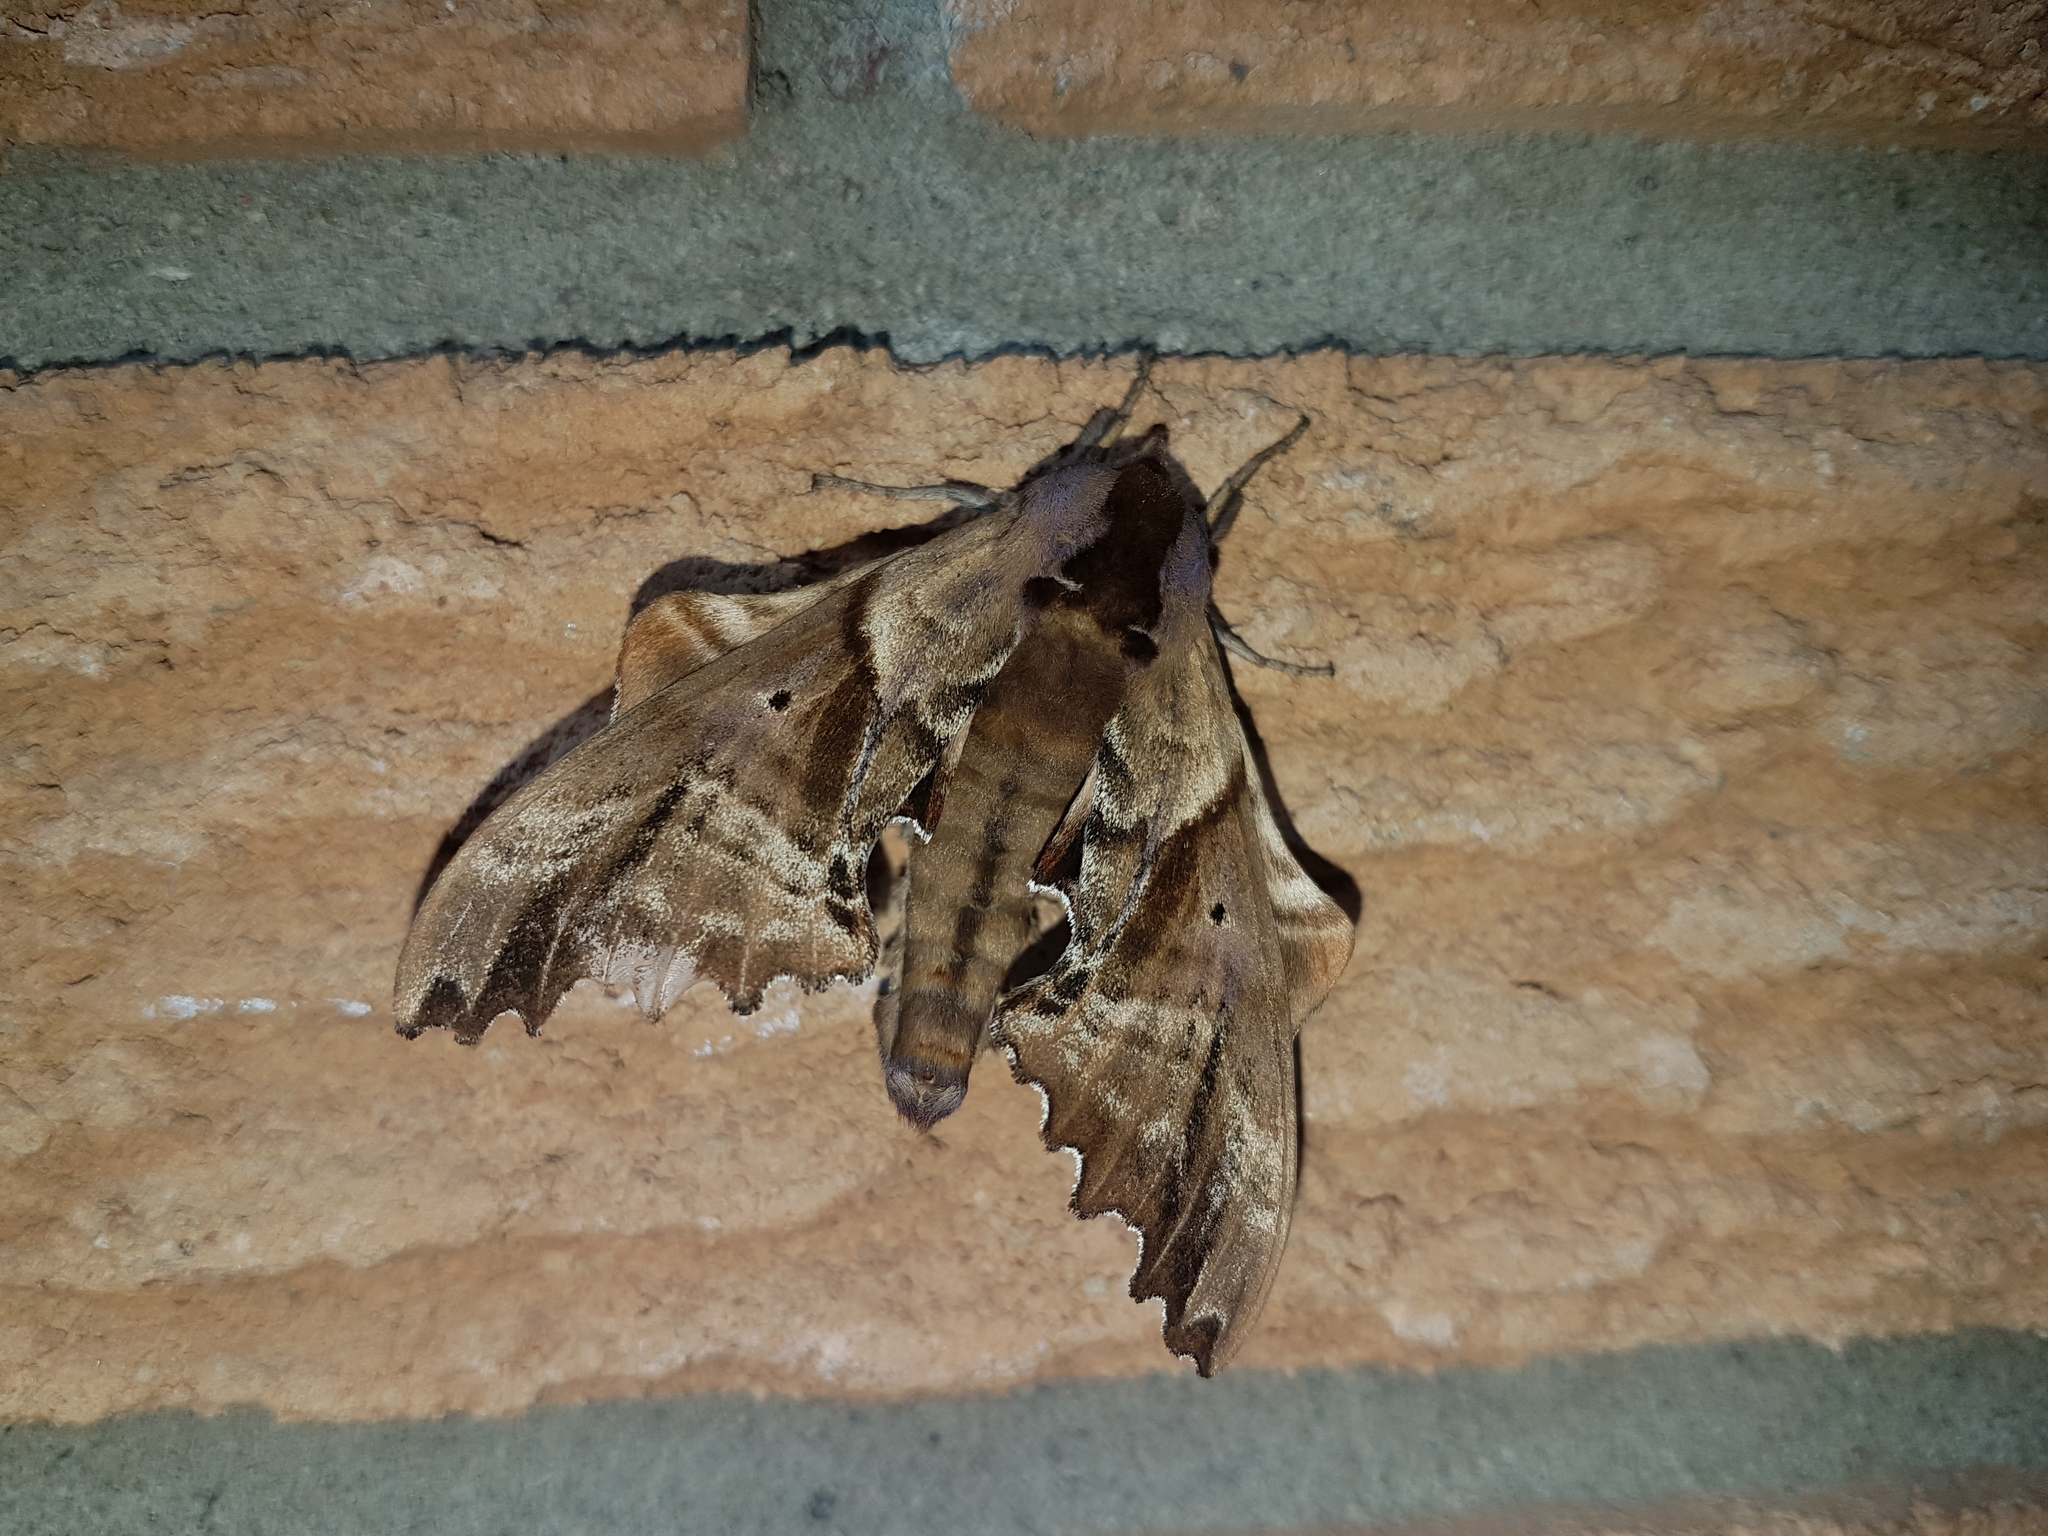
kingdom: Animalia
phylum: Arthropoda
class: Insecta
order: Lepidoptera
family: Sphingidae
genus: Paonias
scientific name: Paonias excaecata
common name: Blind-eyed sphinx
